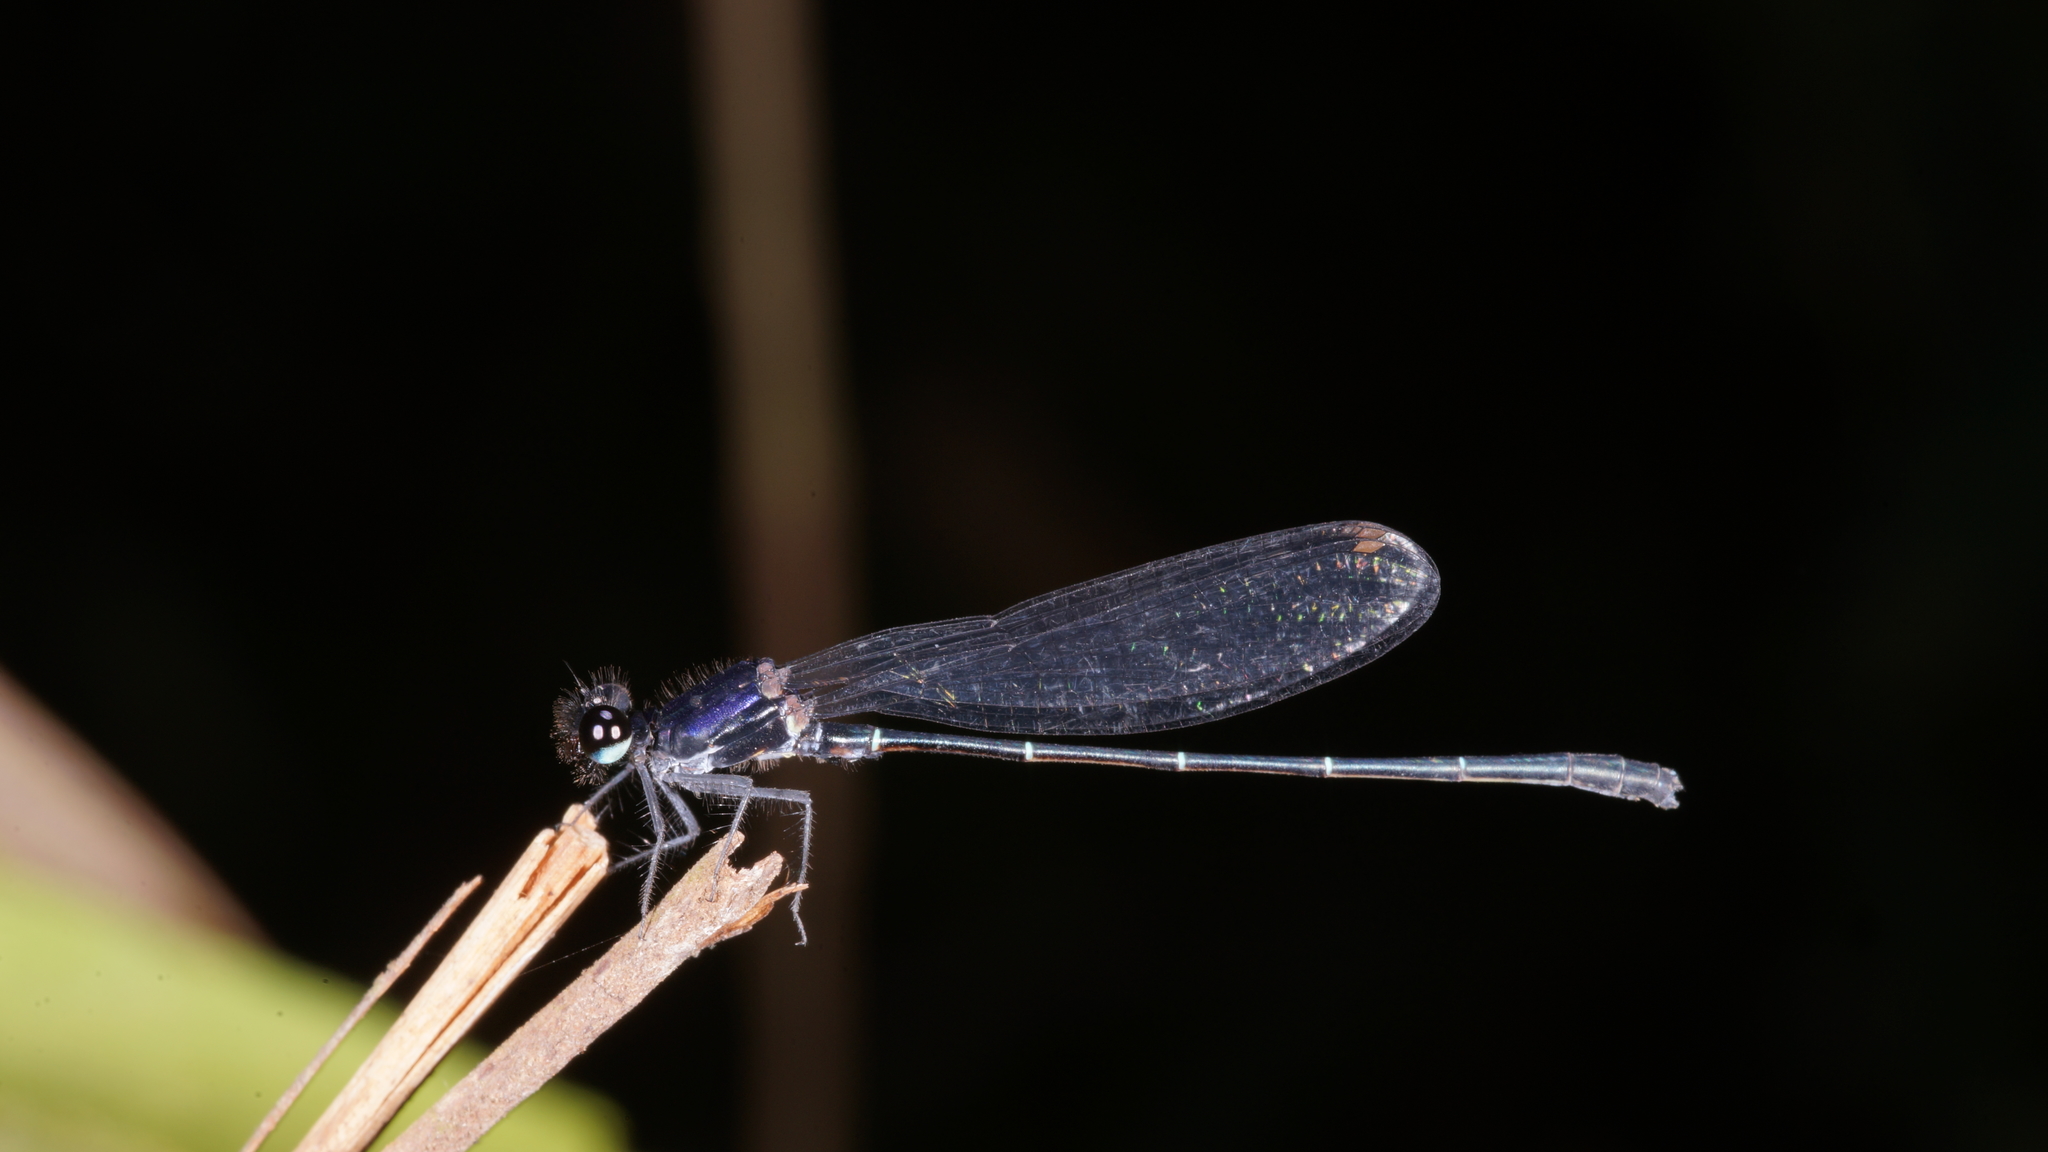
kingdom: Animalia
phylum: Arthropoda
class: Insecta
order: Odonata
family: Platycnemididae
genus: Onychargia
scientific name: Onychargia atrocyana
